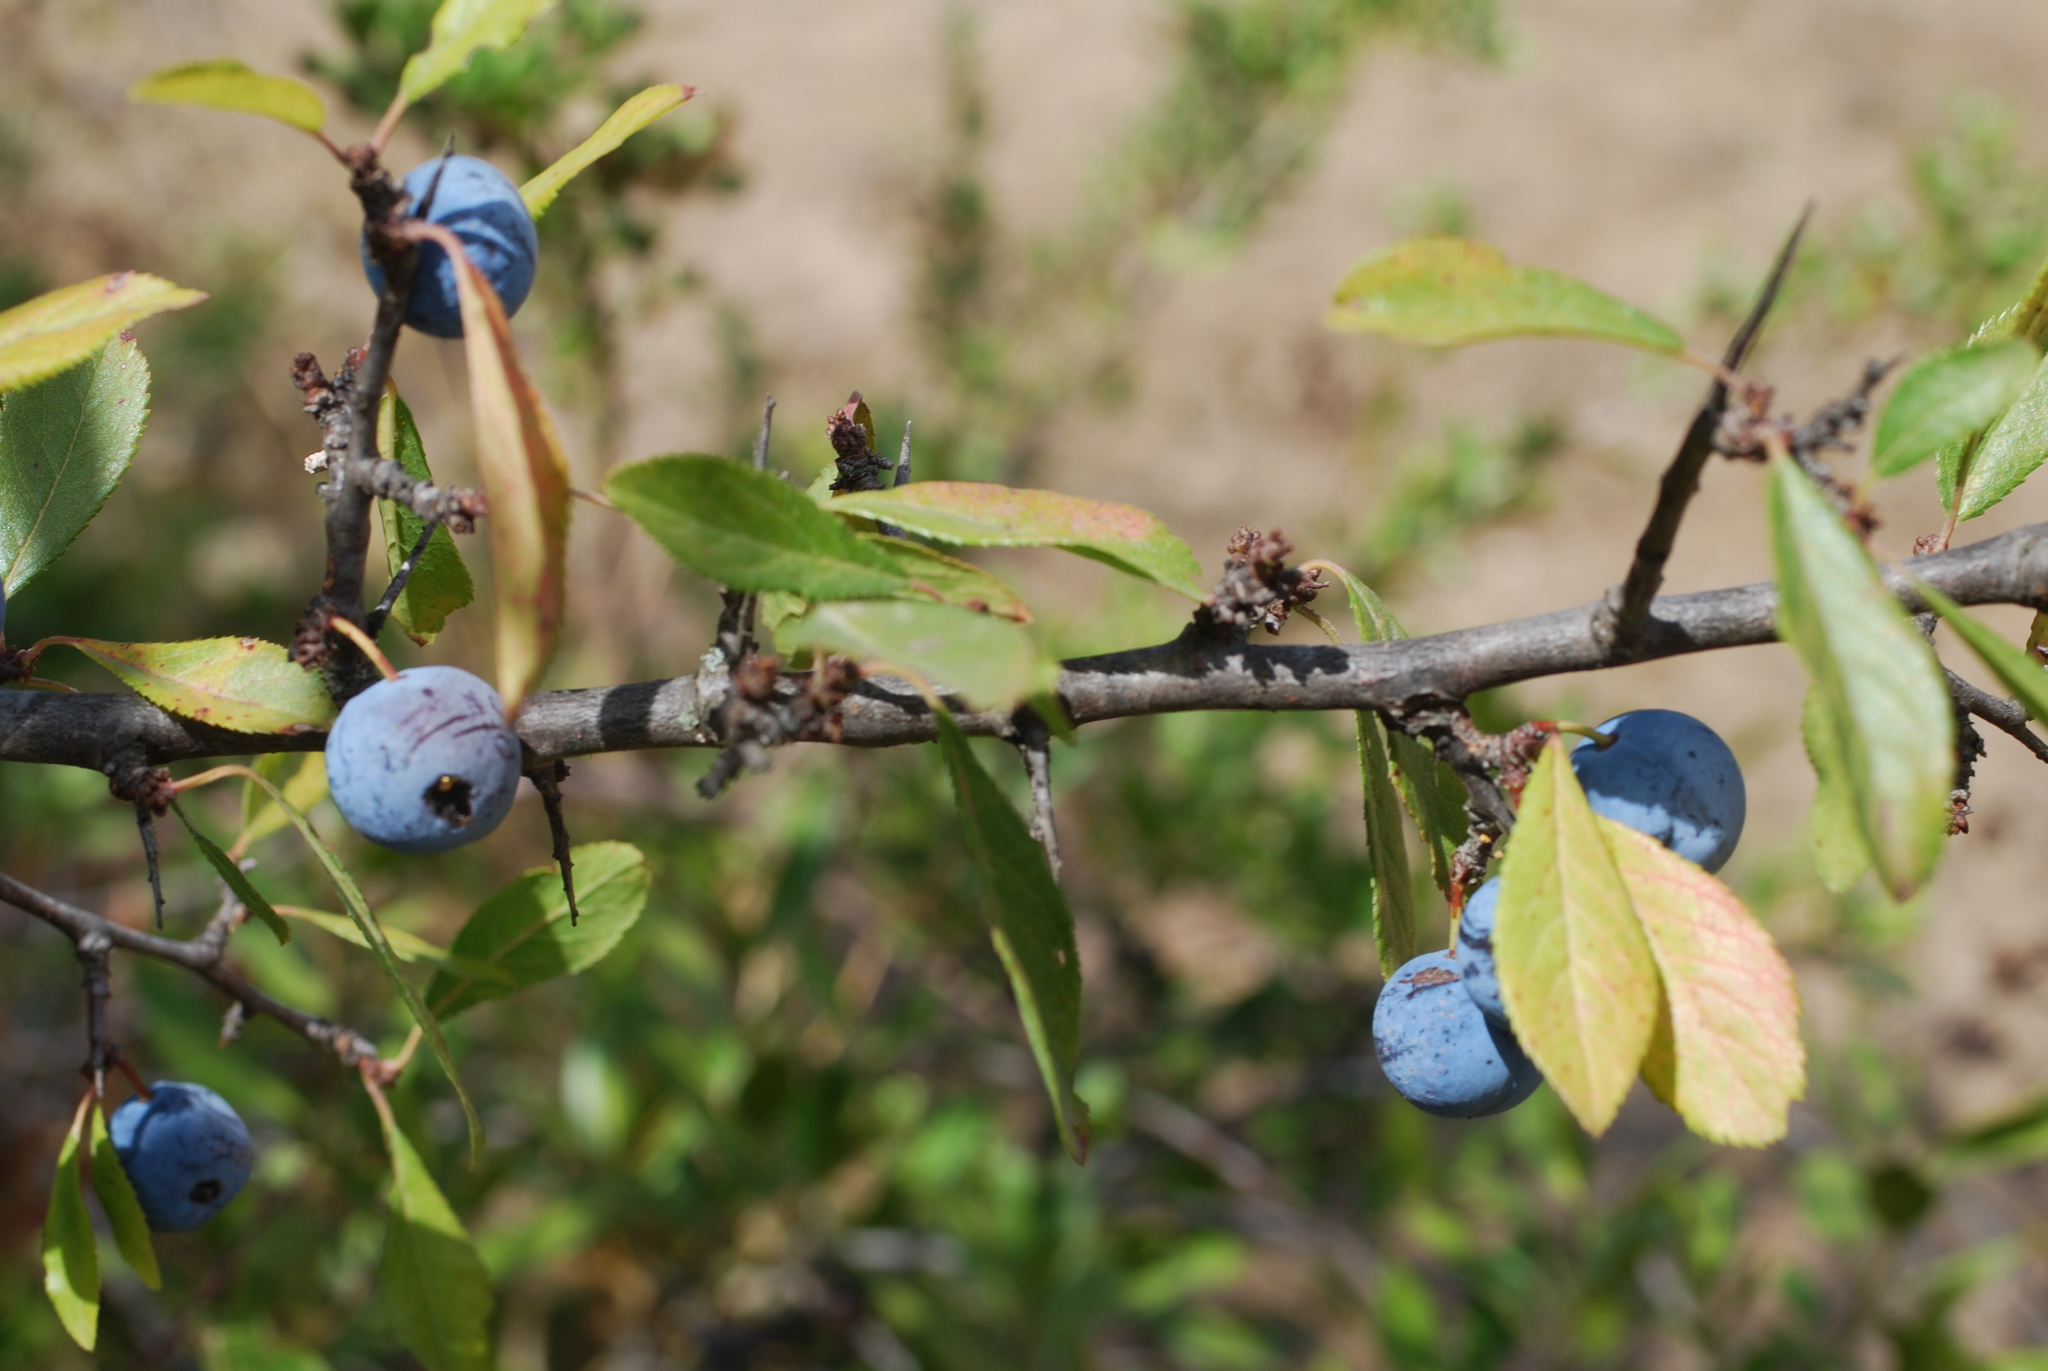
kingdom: Plantae
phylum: Tracheophyta
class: Magnoliopsida
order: Rosales
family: Rosaceae
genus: Prunus
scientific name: Prunus spinosa
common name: Blackthorn
